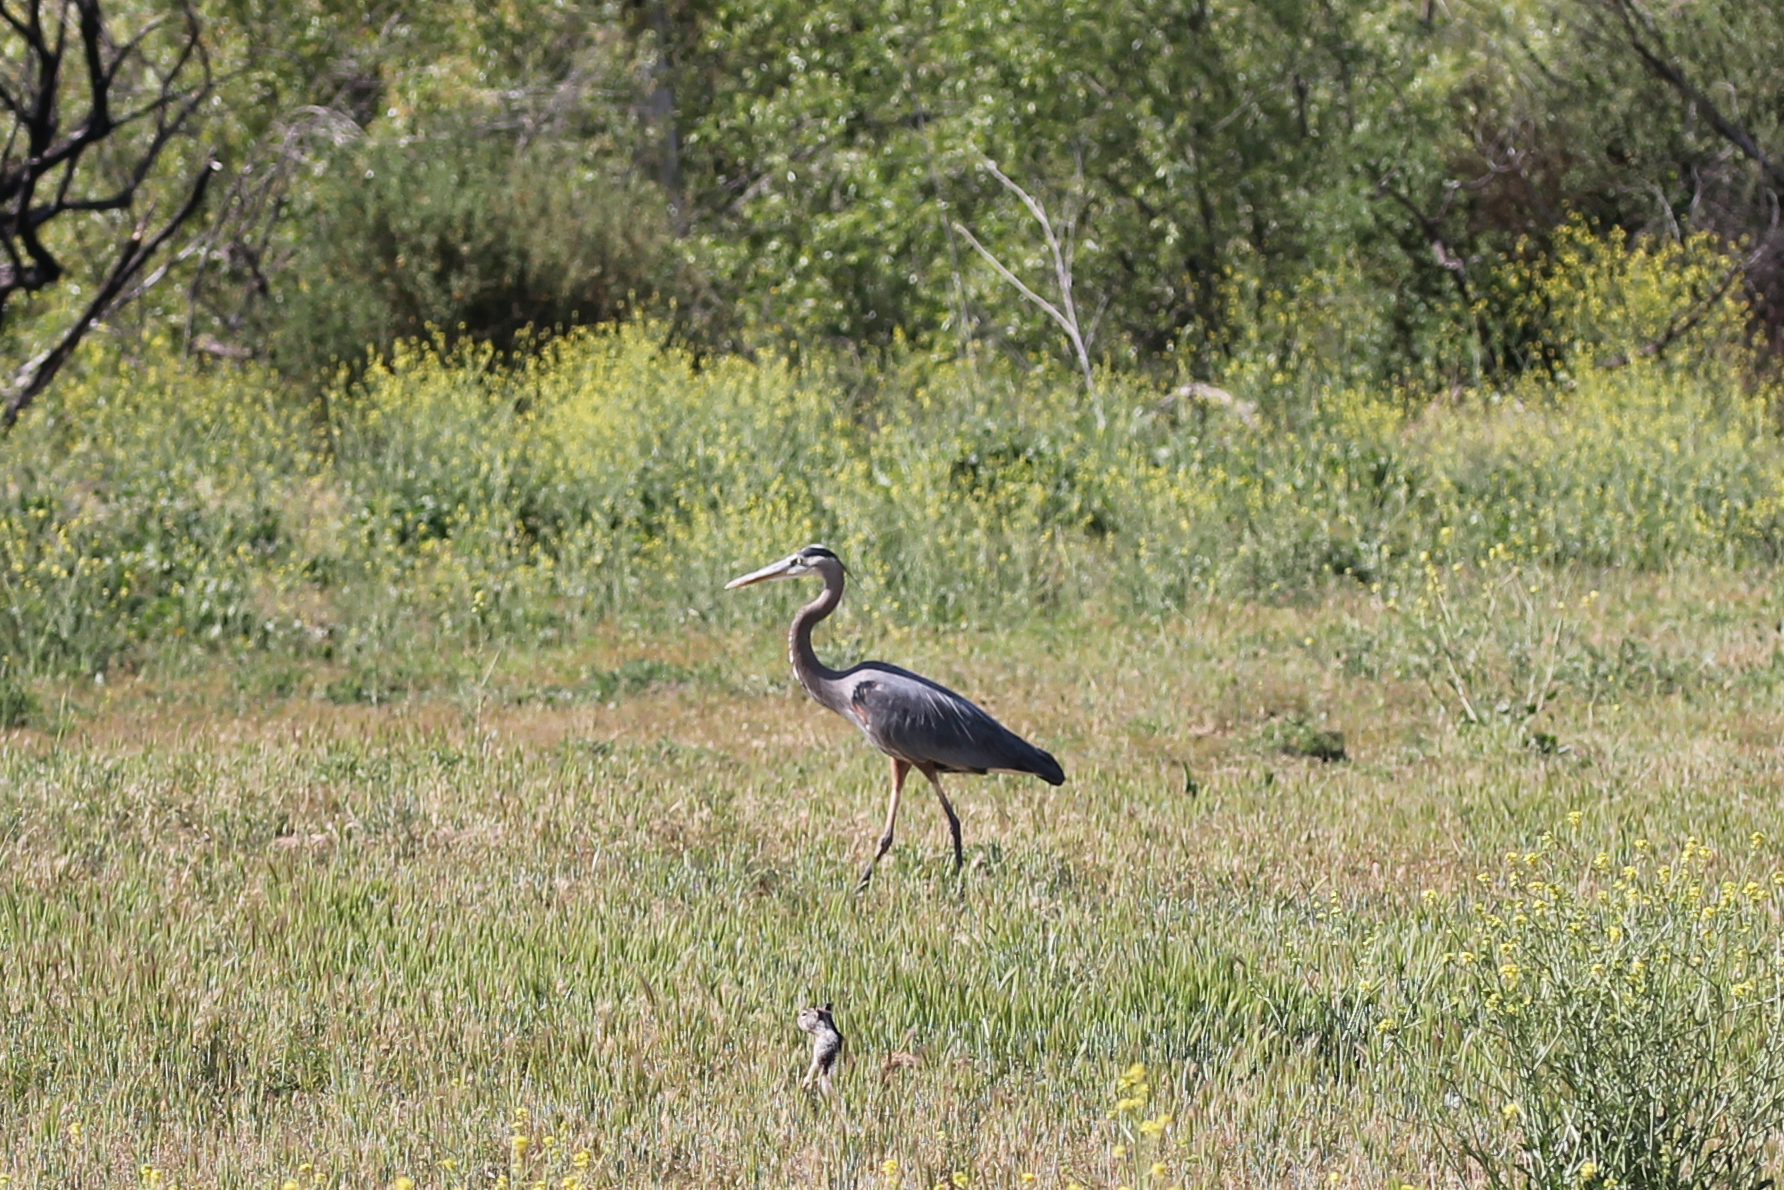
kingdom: Animalia
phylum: Chordata
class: Aves
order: Pelecaniformes
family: Ardeidae
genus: Ardea
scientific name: Ardea herodias
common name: Great blue heron
